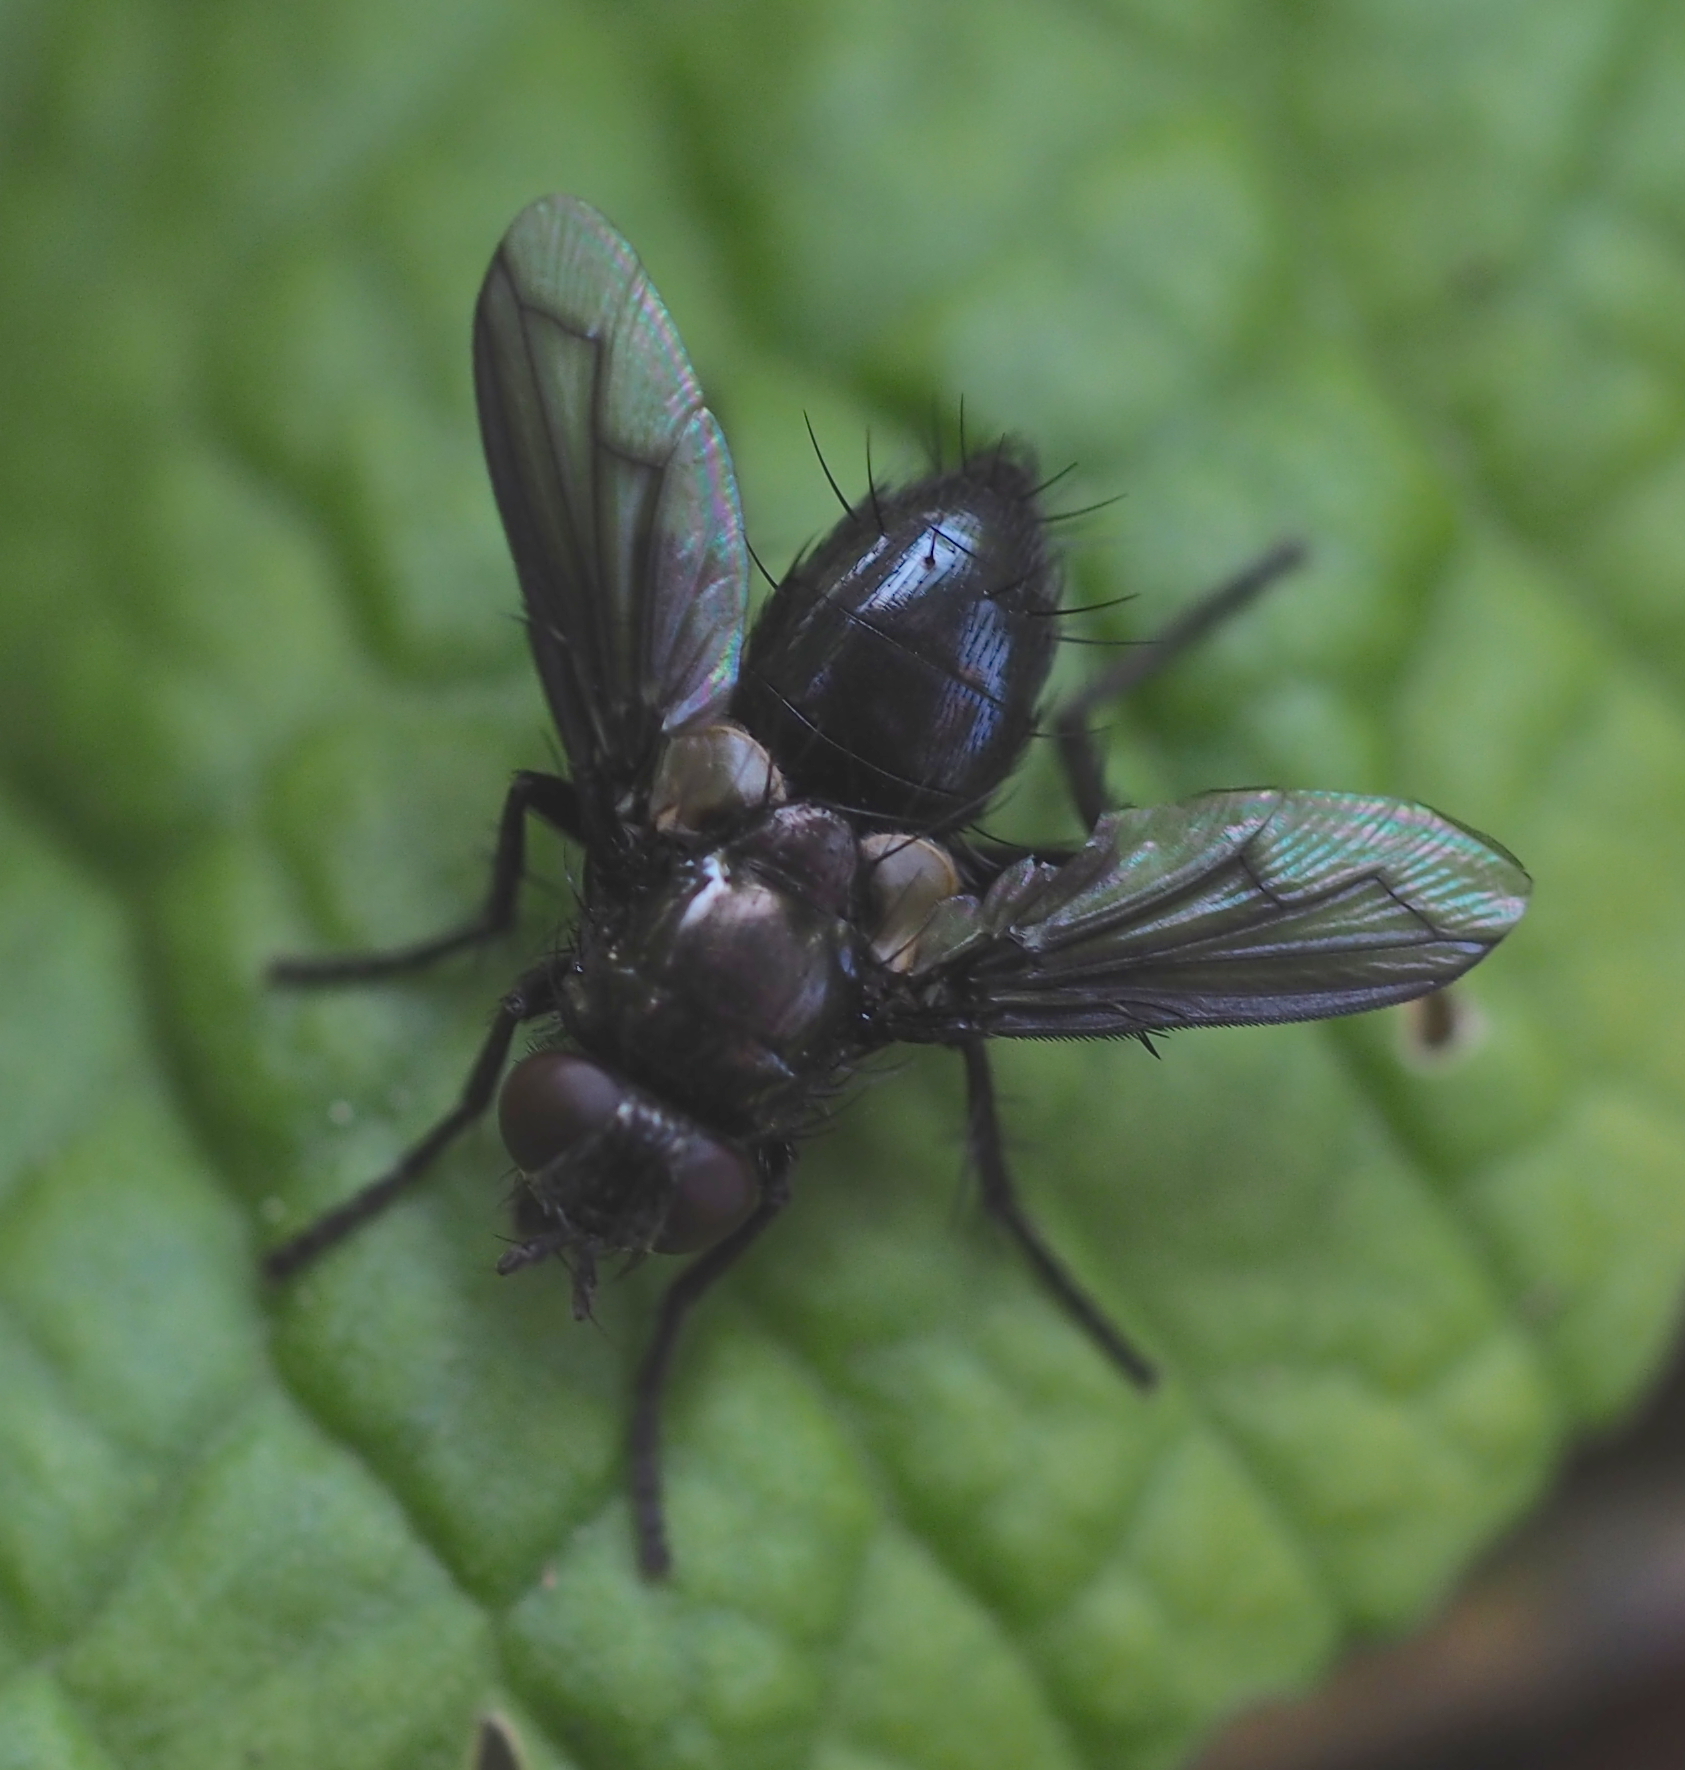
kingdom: Animalia
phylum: Arthropoda
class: Insecta
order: Diptera
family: Tachinidae
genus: Kirbya
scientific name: Kirbya moerens
